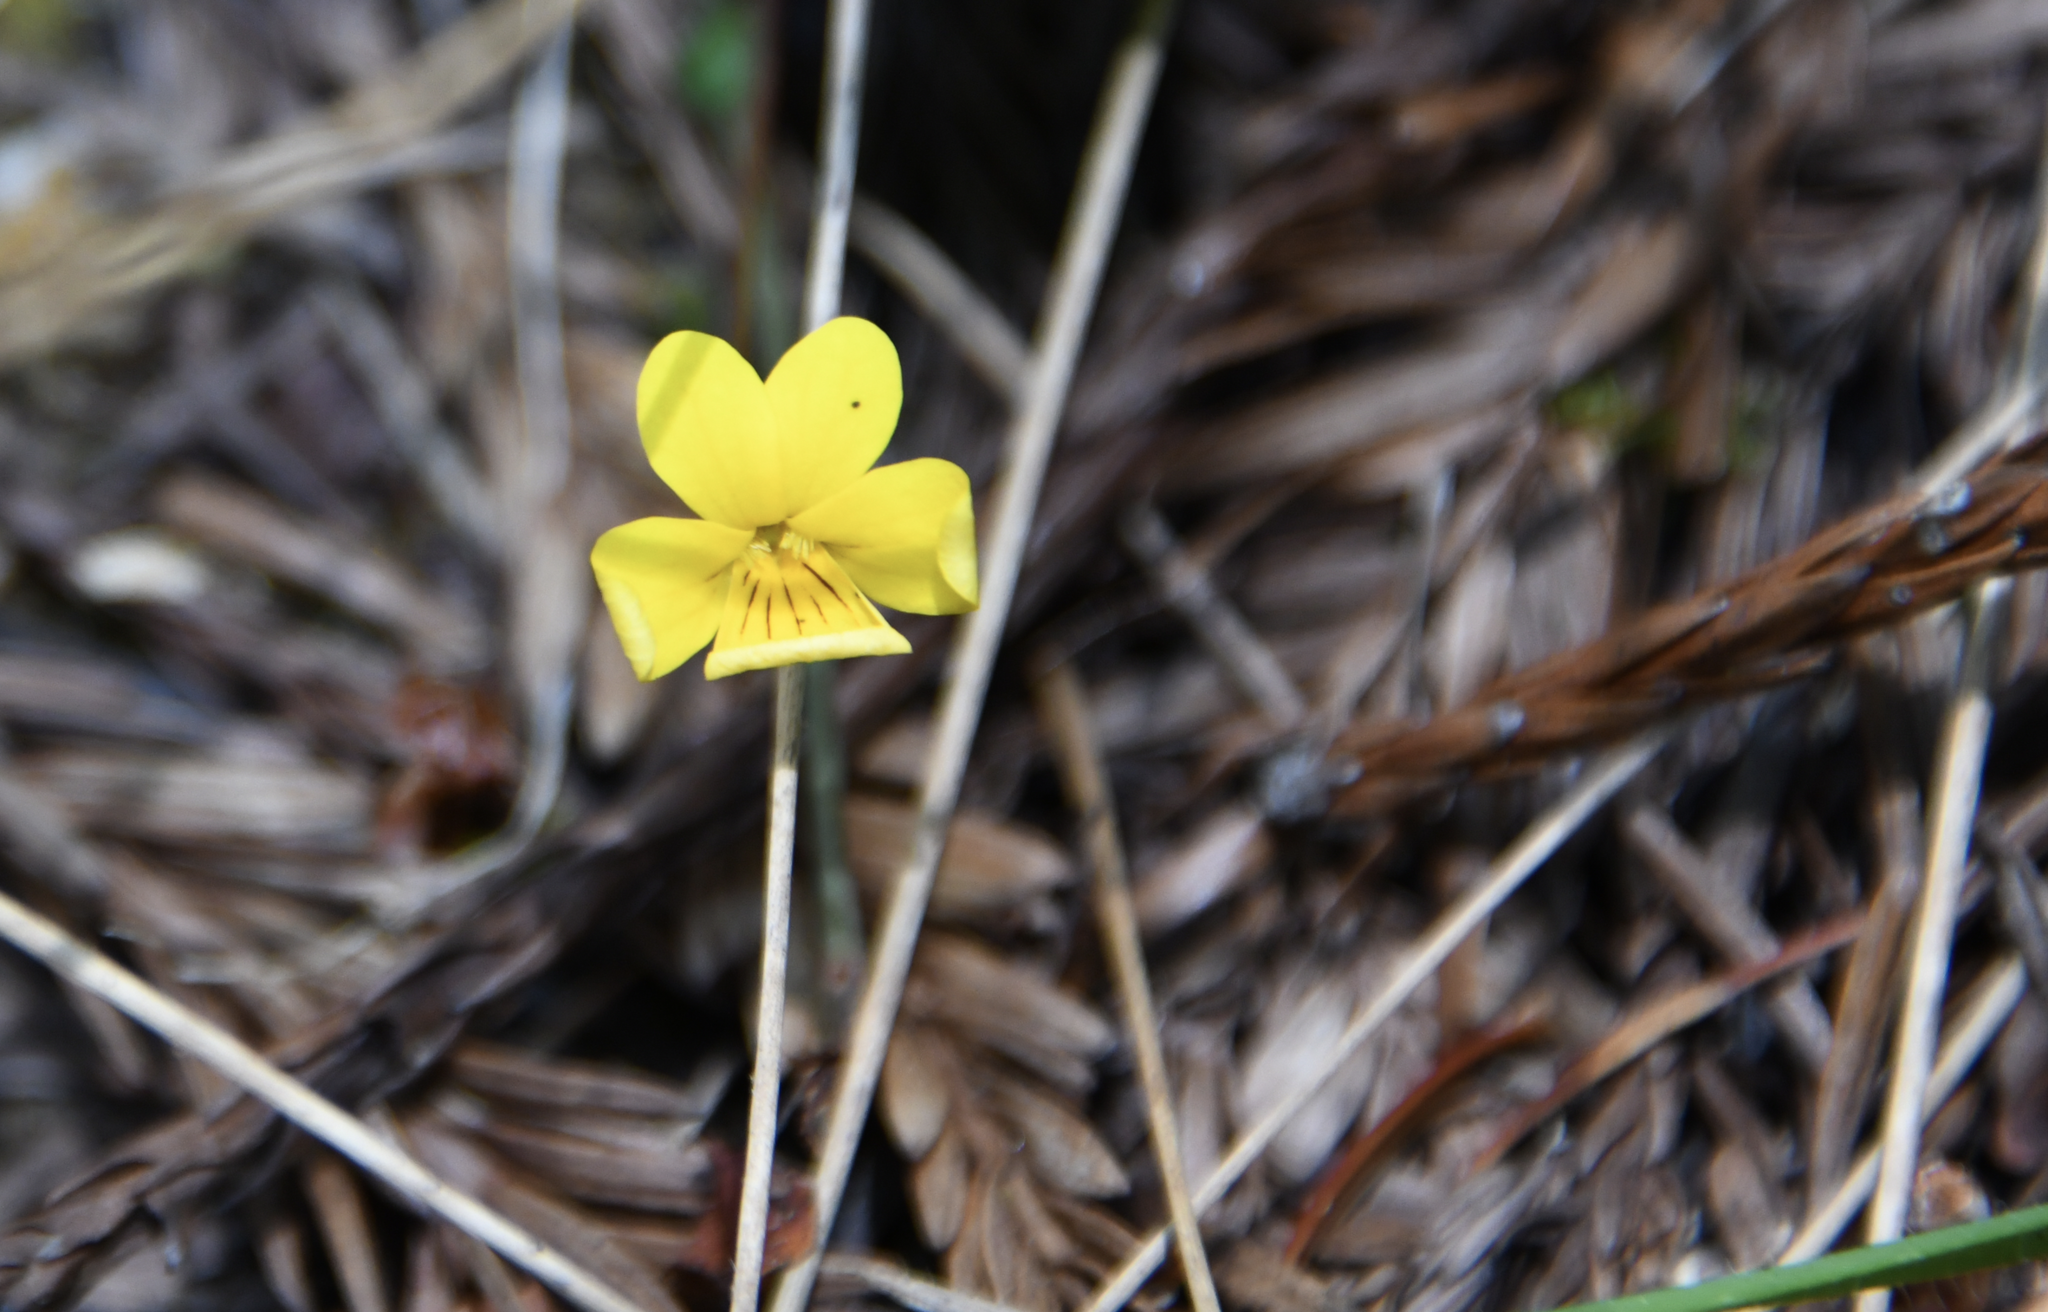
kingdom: Plantae
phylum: Tracheophyta
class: Magnoliopsida
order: Malpighiales
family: Violaceae
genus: Viola
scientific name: Viola sempervirens
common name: Evergreen violet
